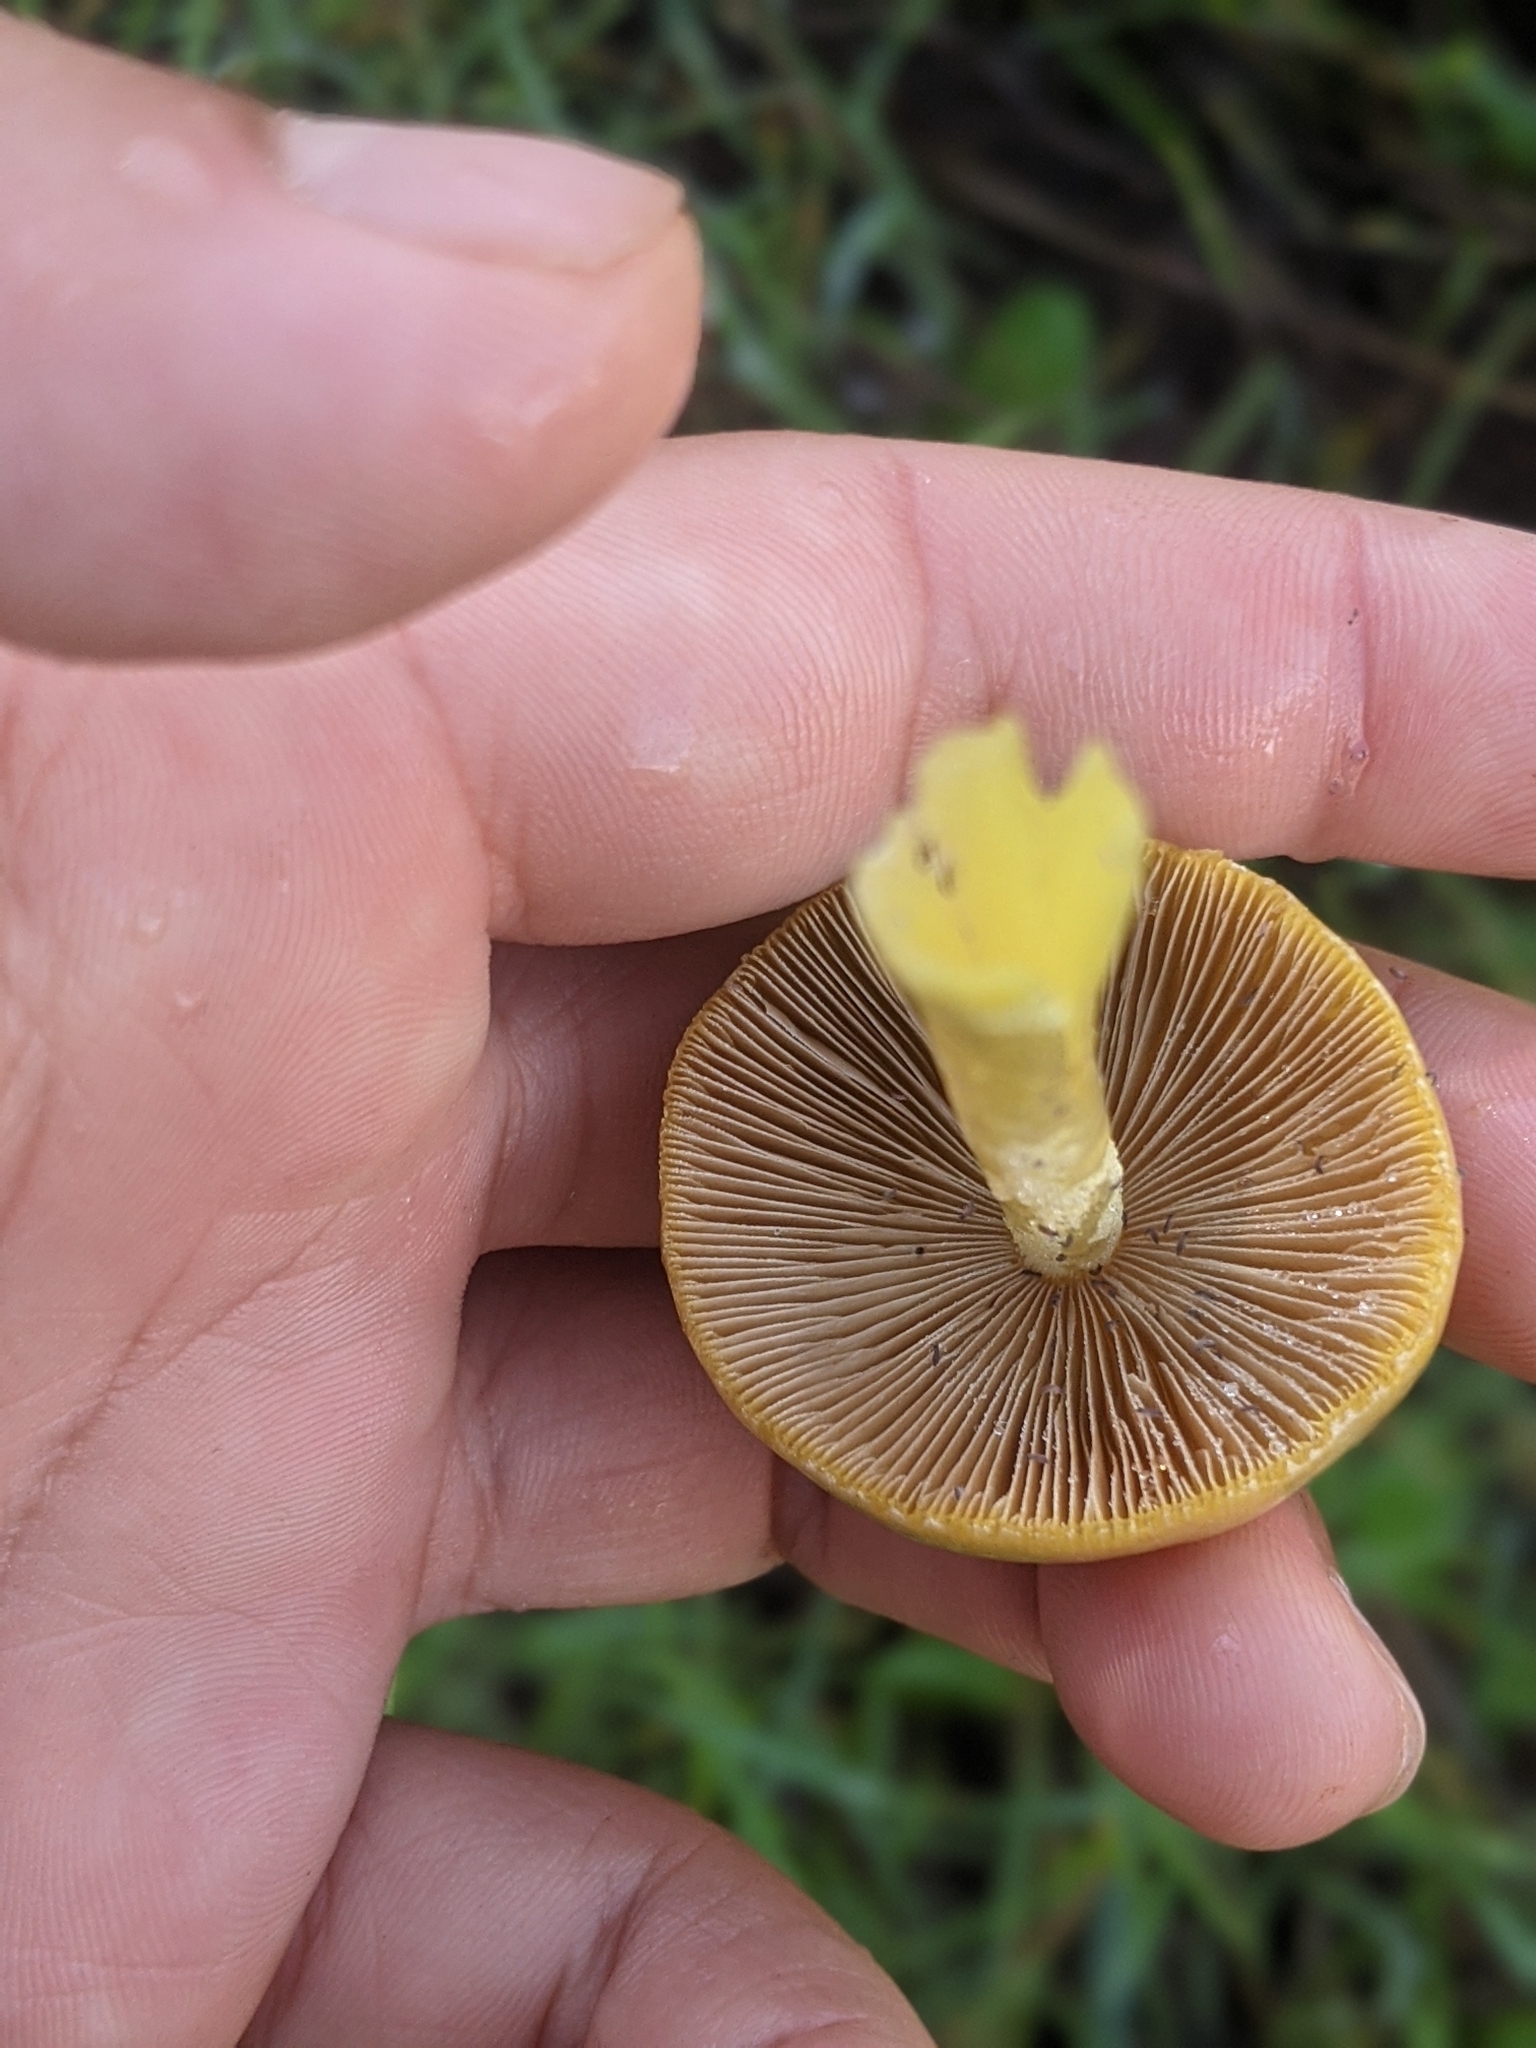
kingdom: Fungi
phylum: Basidiomycota
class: Agaricomycetes
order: Agaricales
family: Bolbitiaceae
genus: Bolbitius
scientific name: Bolbitius titubans
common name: Yellow fieldcap
